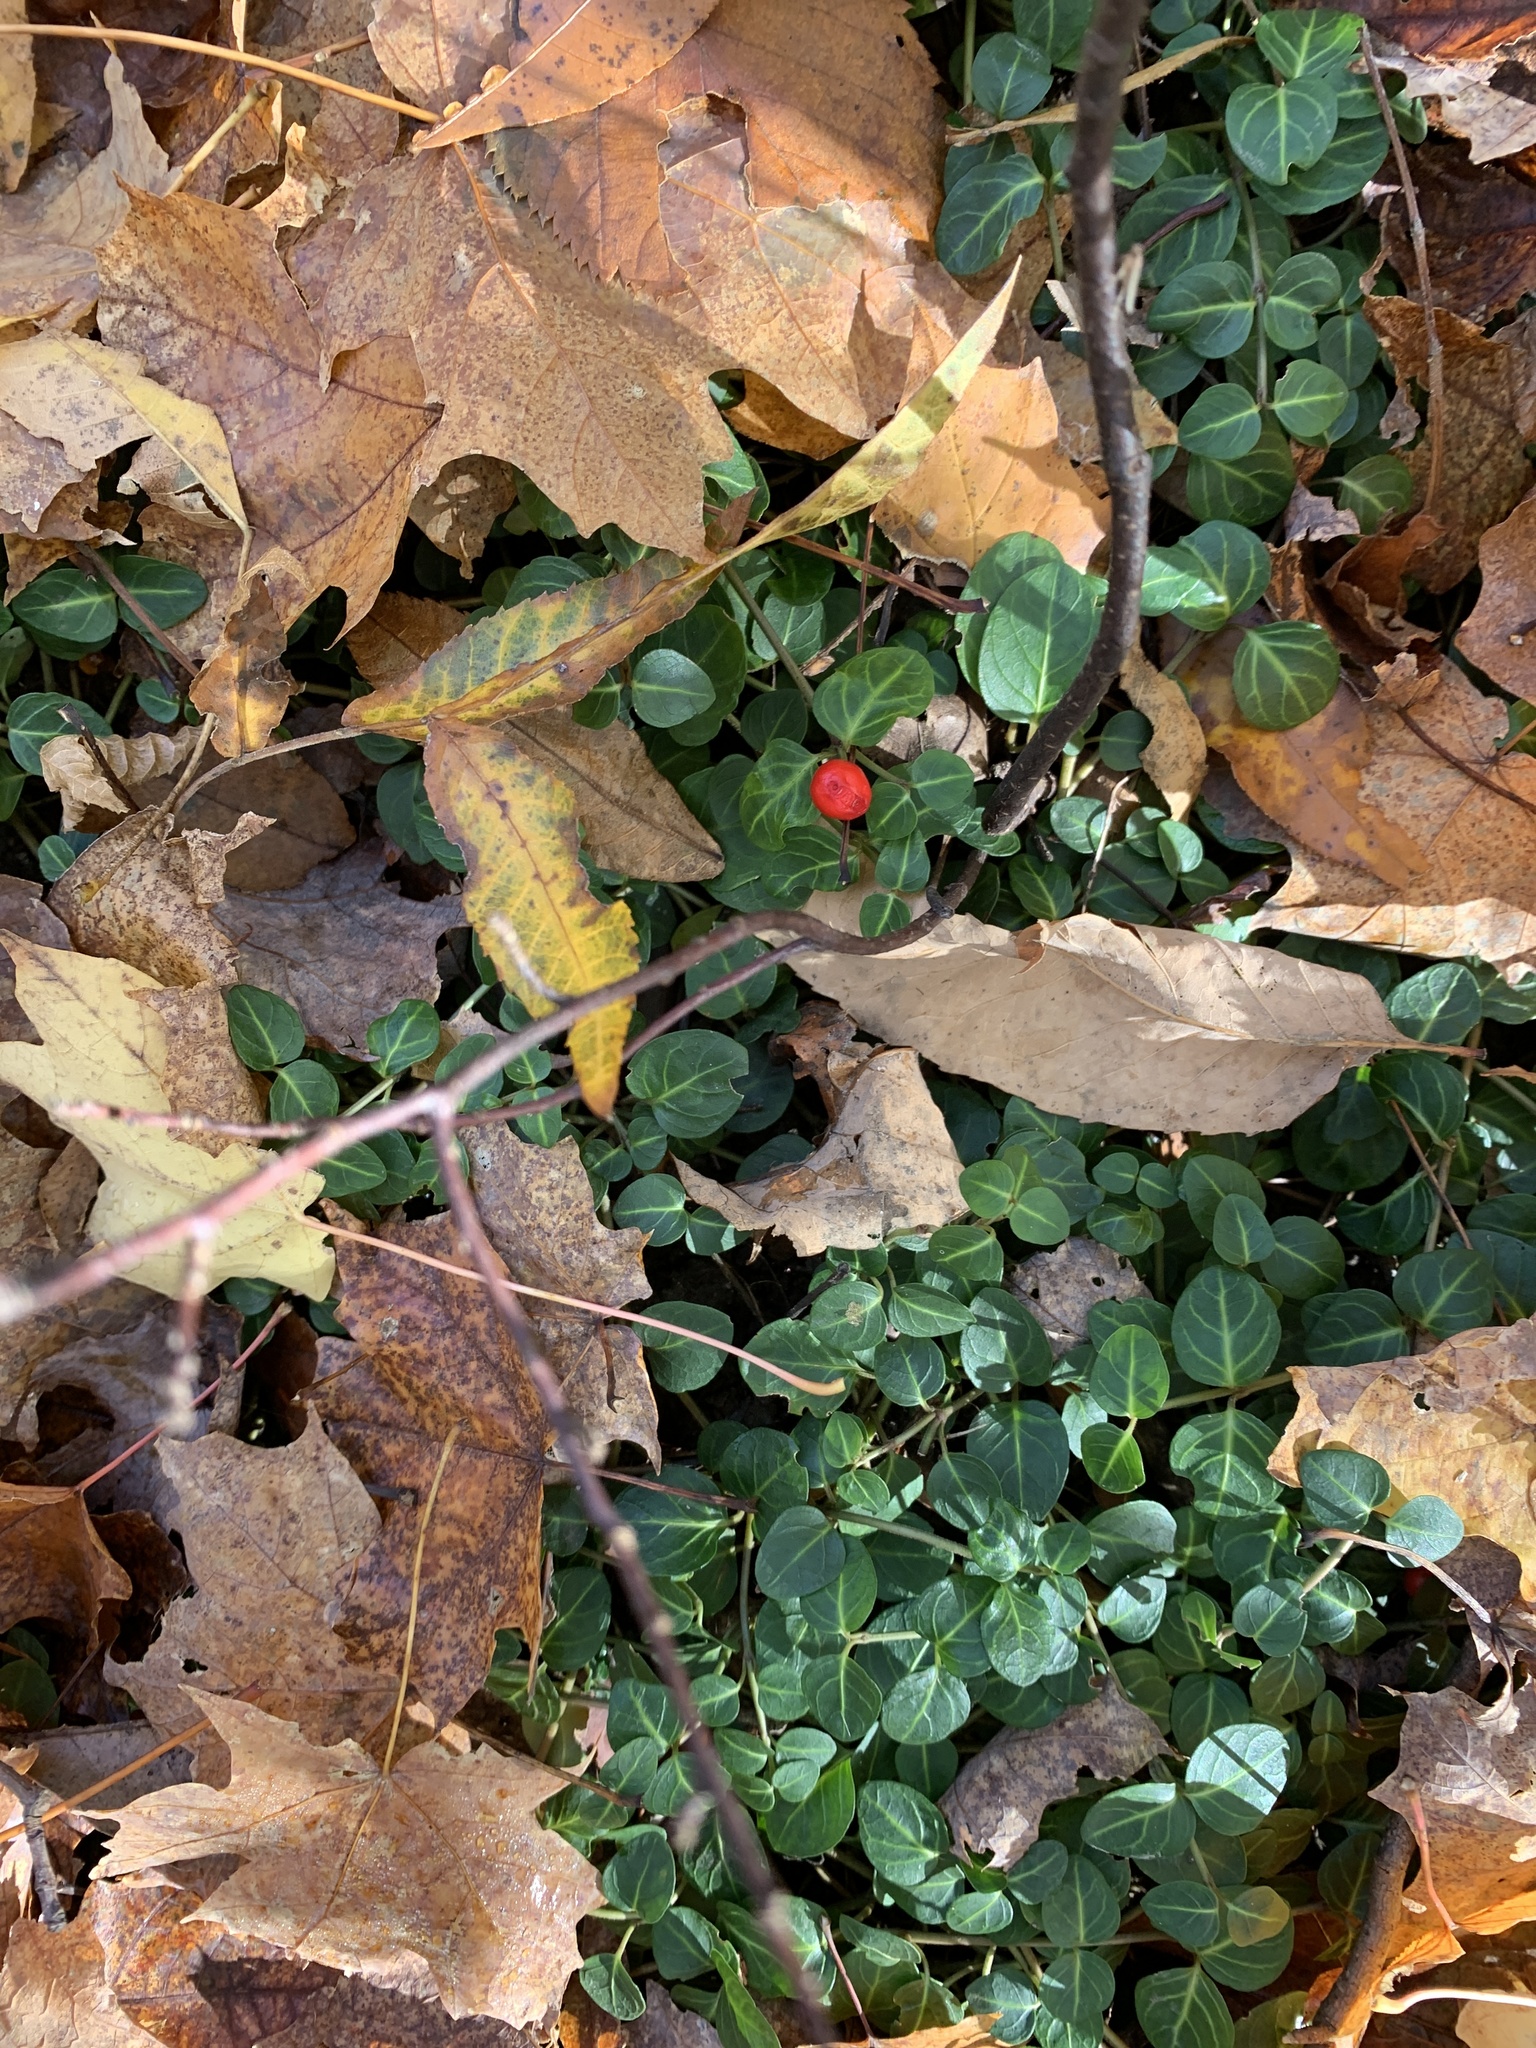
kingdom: Plantae
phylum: Tracheophyta
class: Magnoliopsida
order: Gentianales
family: Rubiaceae
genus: Mitchella
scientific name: Mitchella repens
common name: Partridge-berry
